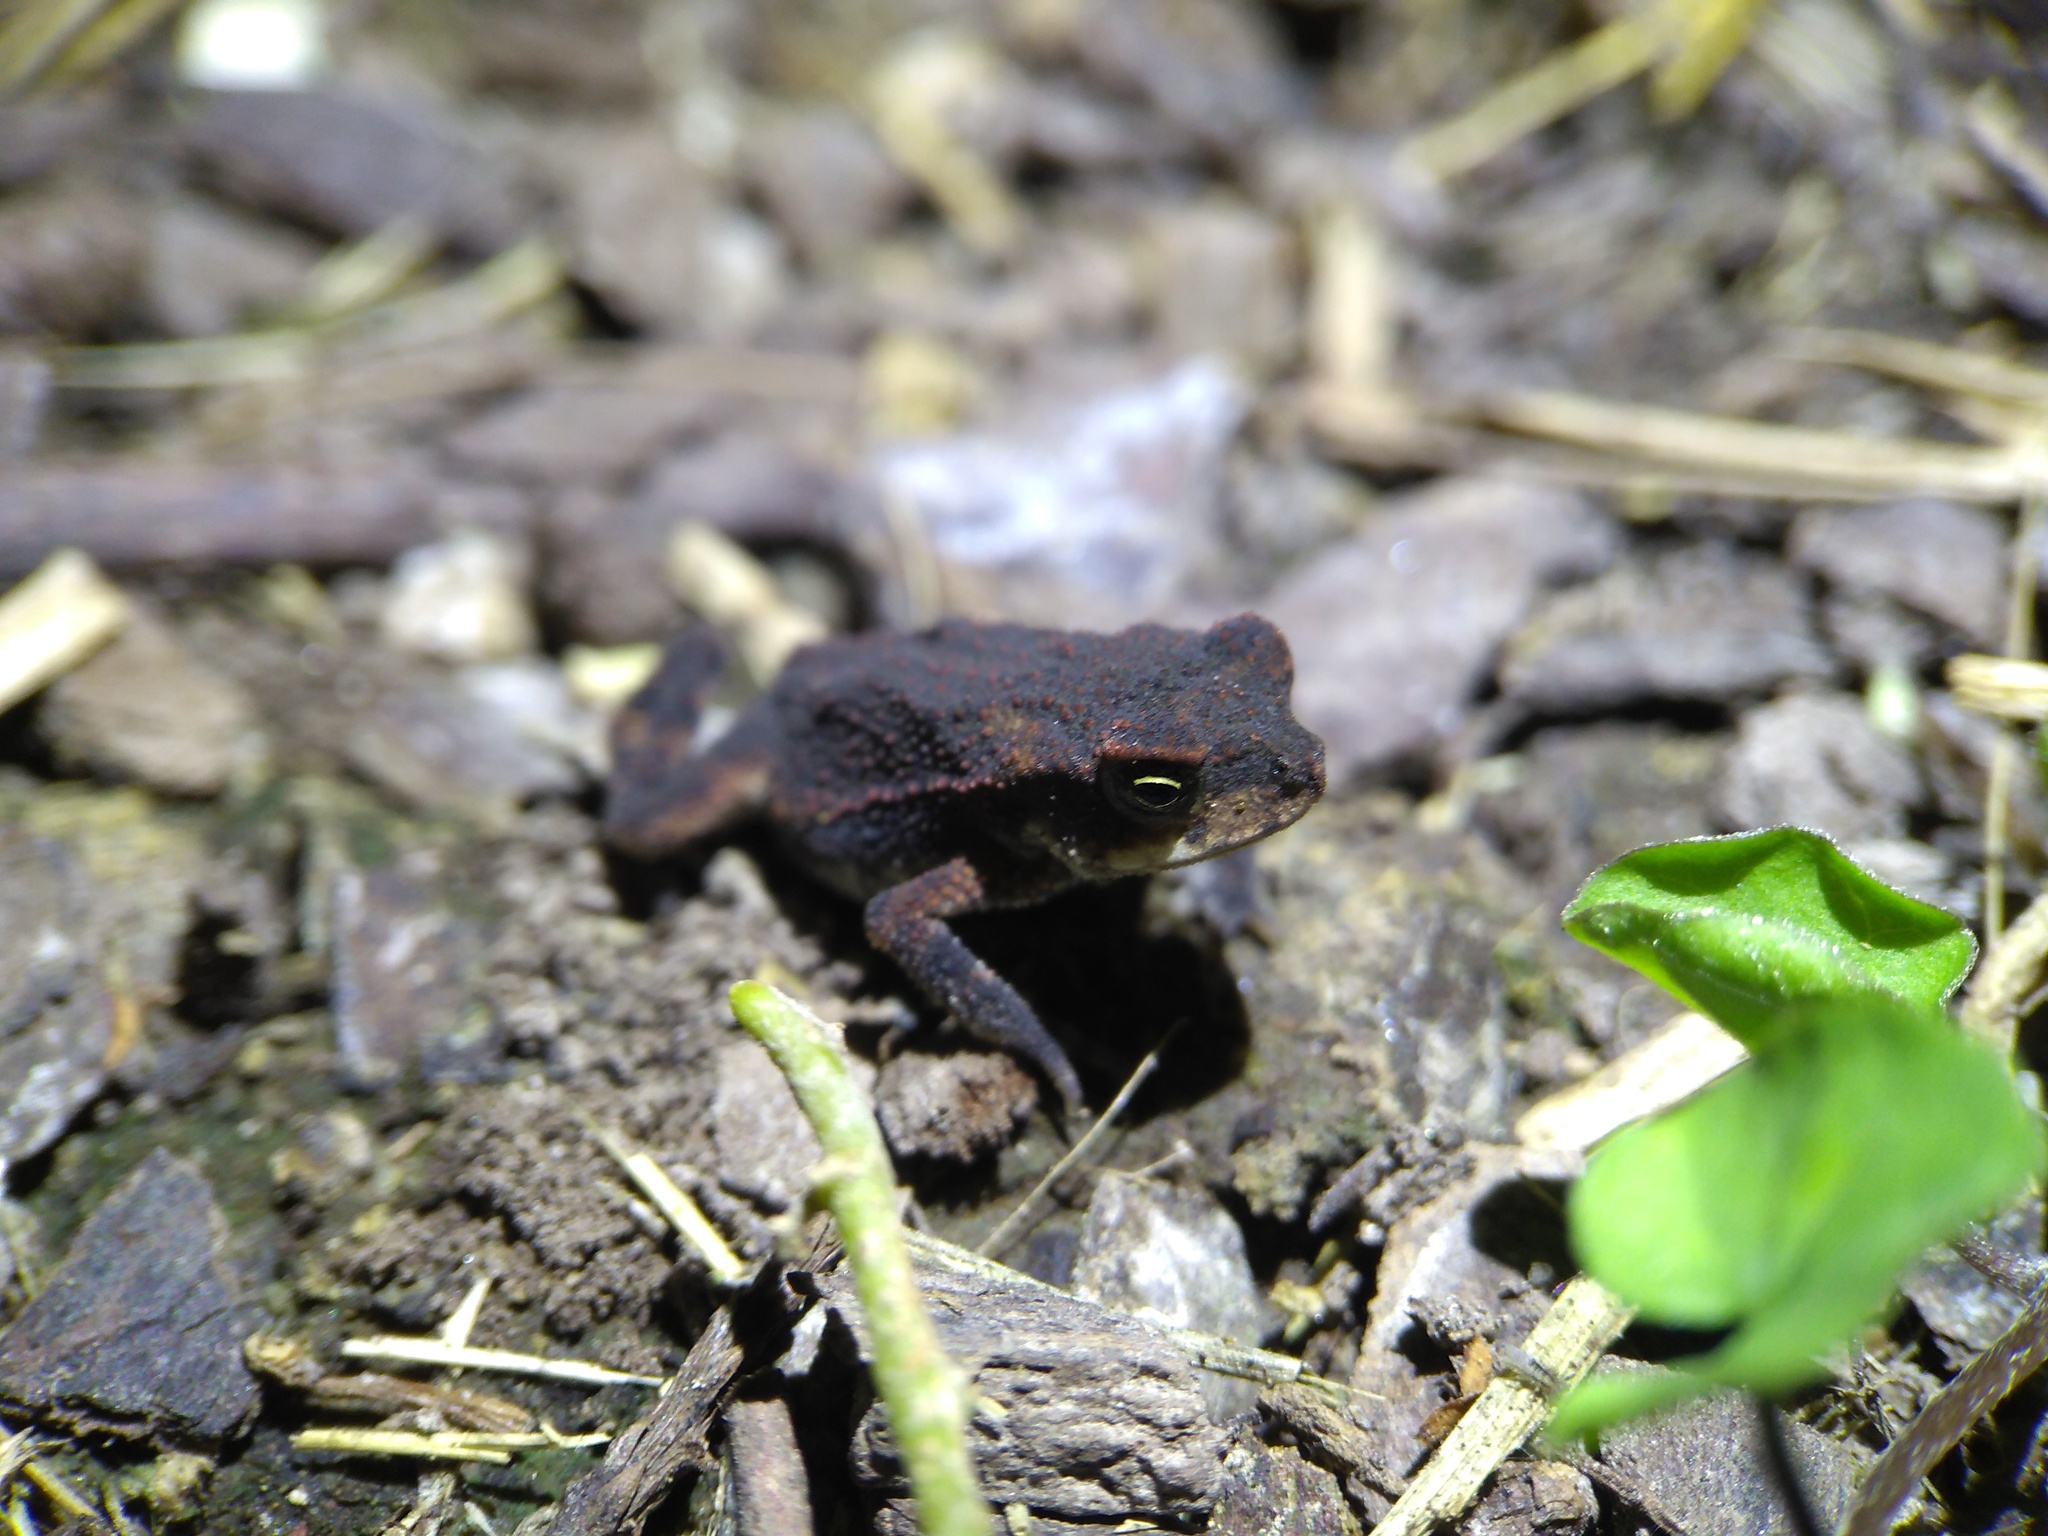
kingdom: Animalia
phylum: Chordata
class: Amphibia
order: Anura
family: Bufonidae
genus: Incilius
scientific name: Incilius nebulifer
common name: Gulf coast toad
